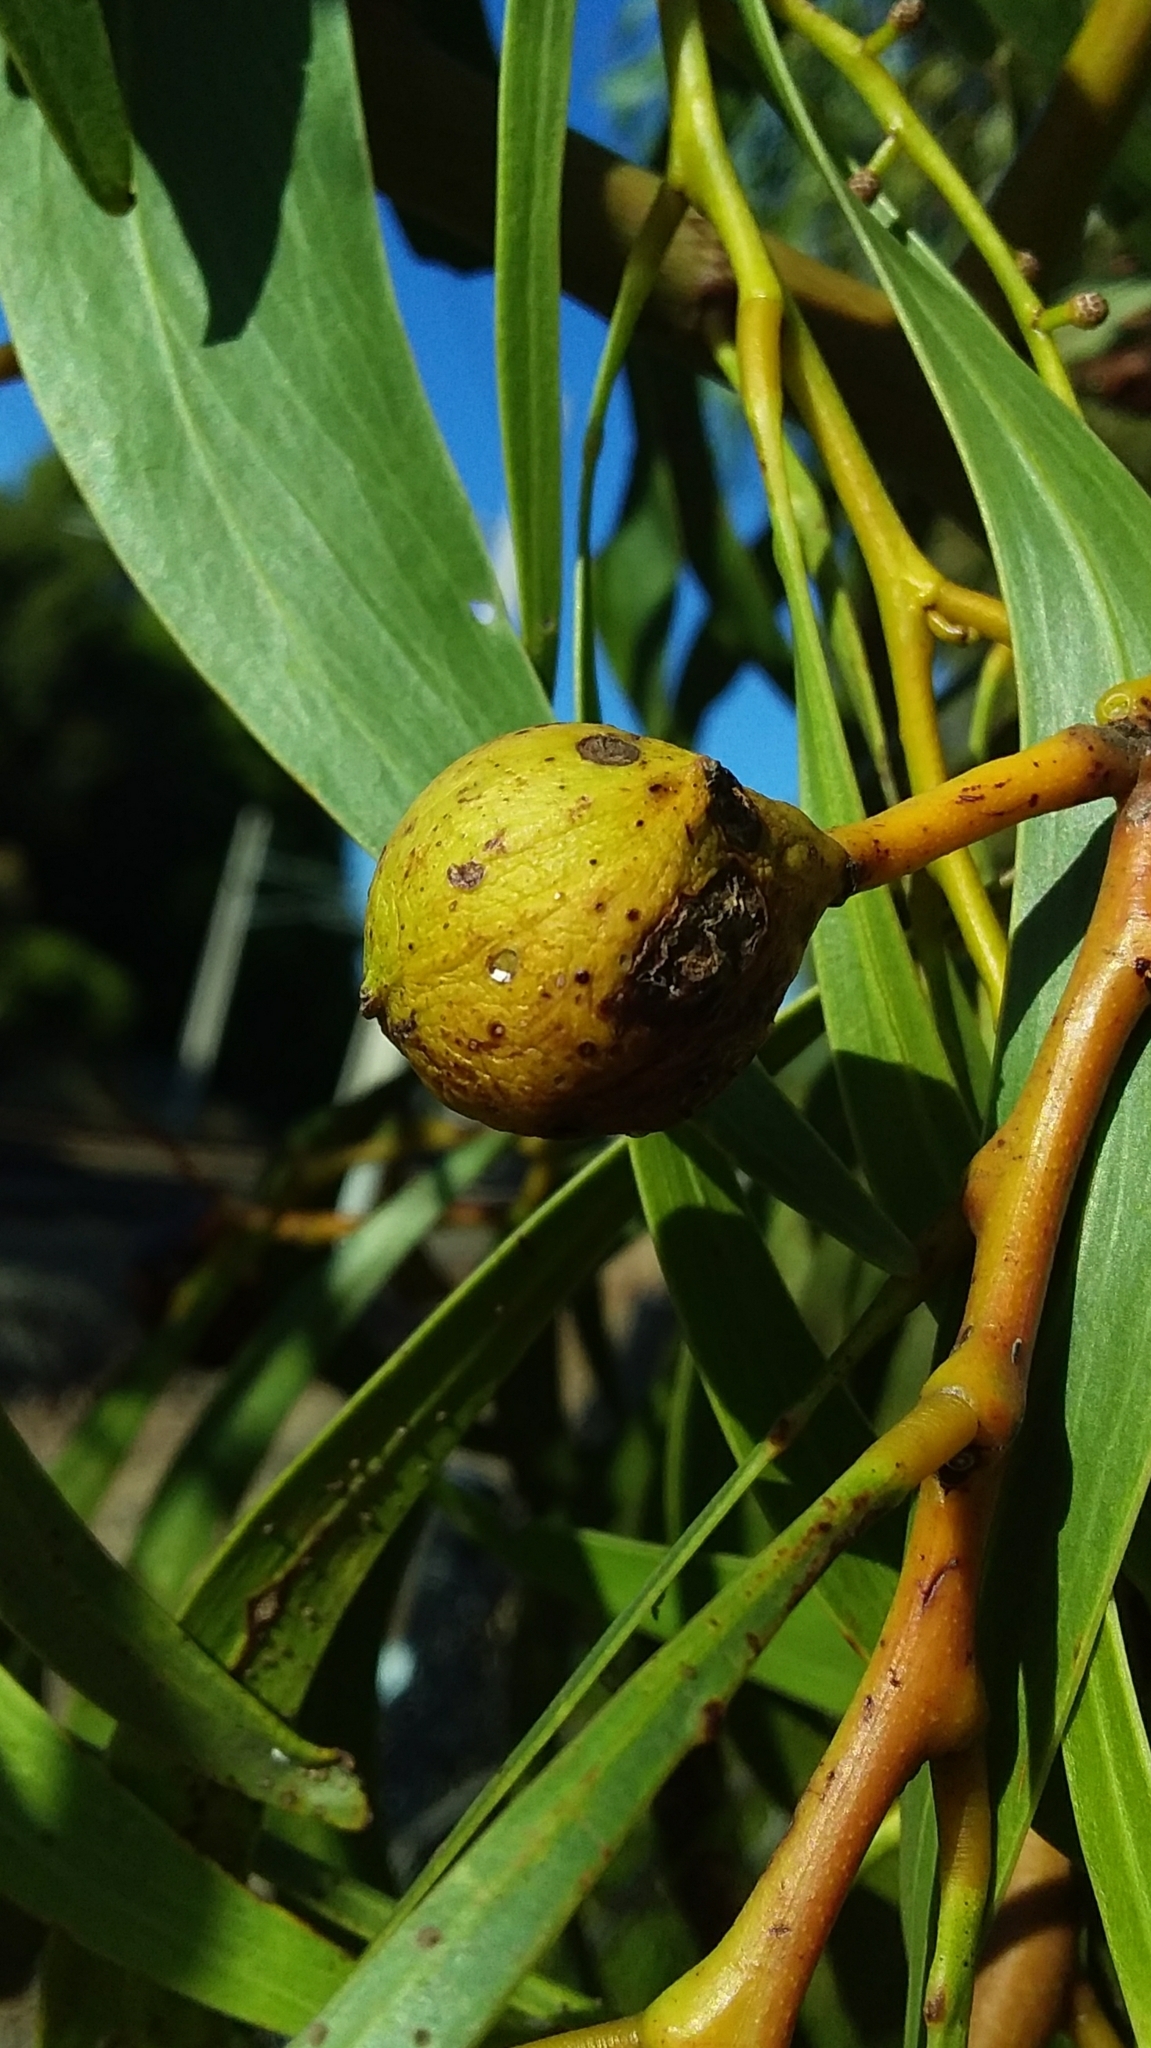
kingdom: Animalia
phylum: Arthropoda
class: Insecta
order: Hymenoptera
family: Pteromalidae
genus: Trichilogaster
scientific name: Trichilogaster signiventris
